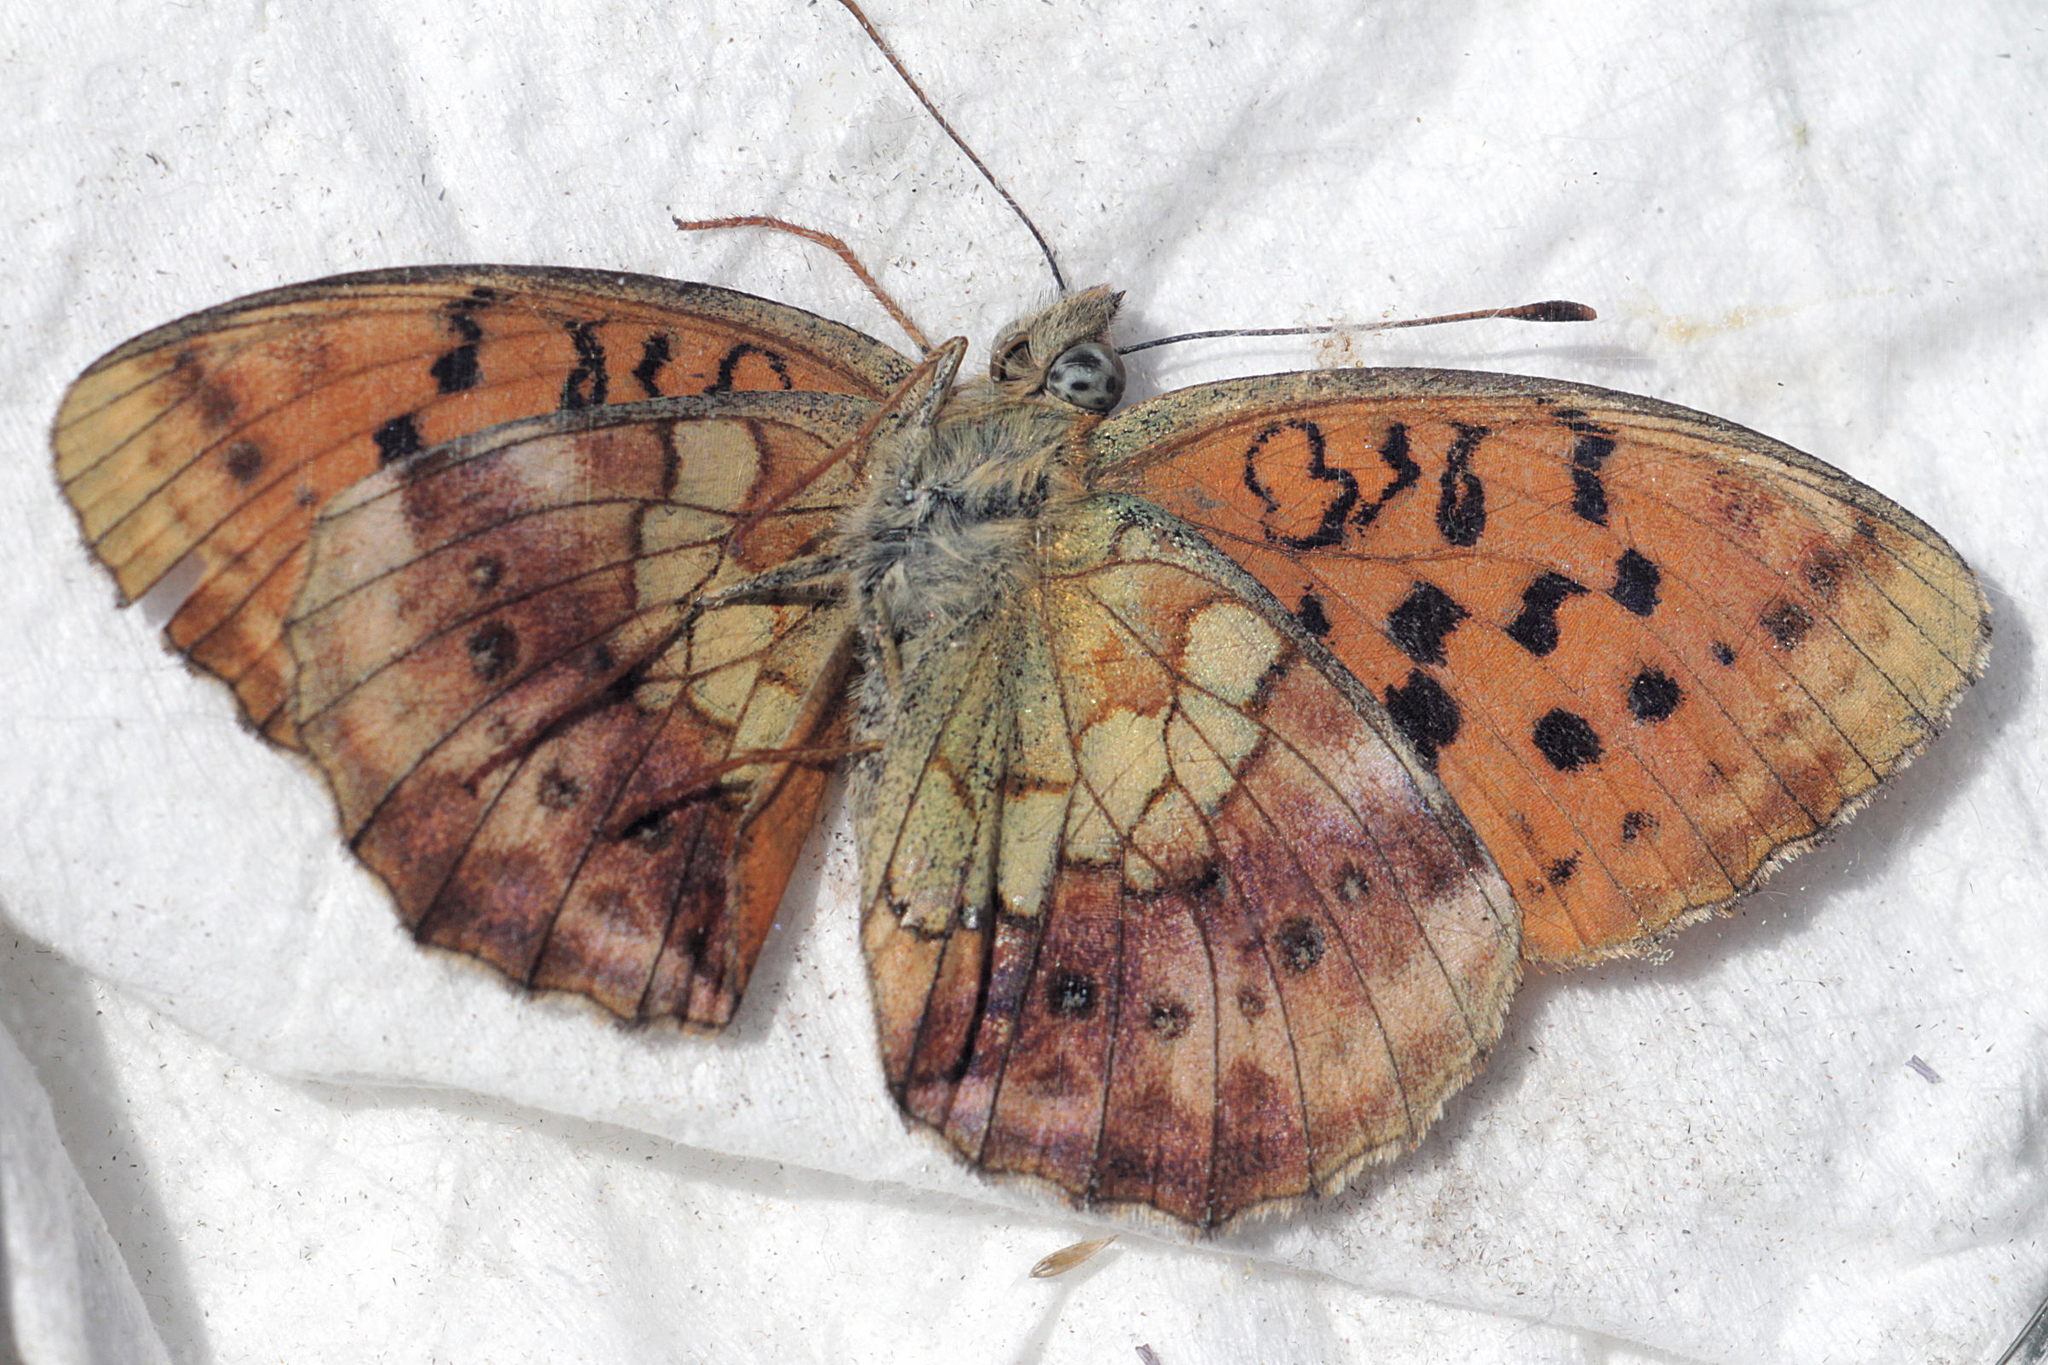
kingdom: Animalia
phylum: Arthropoda
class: Insecta
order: Lepidoptera
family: Nymphalidae
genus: Brenthis
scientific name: Brenthis daphne
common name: Marbled fritillary
